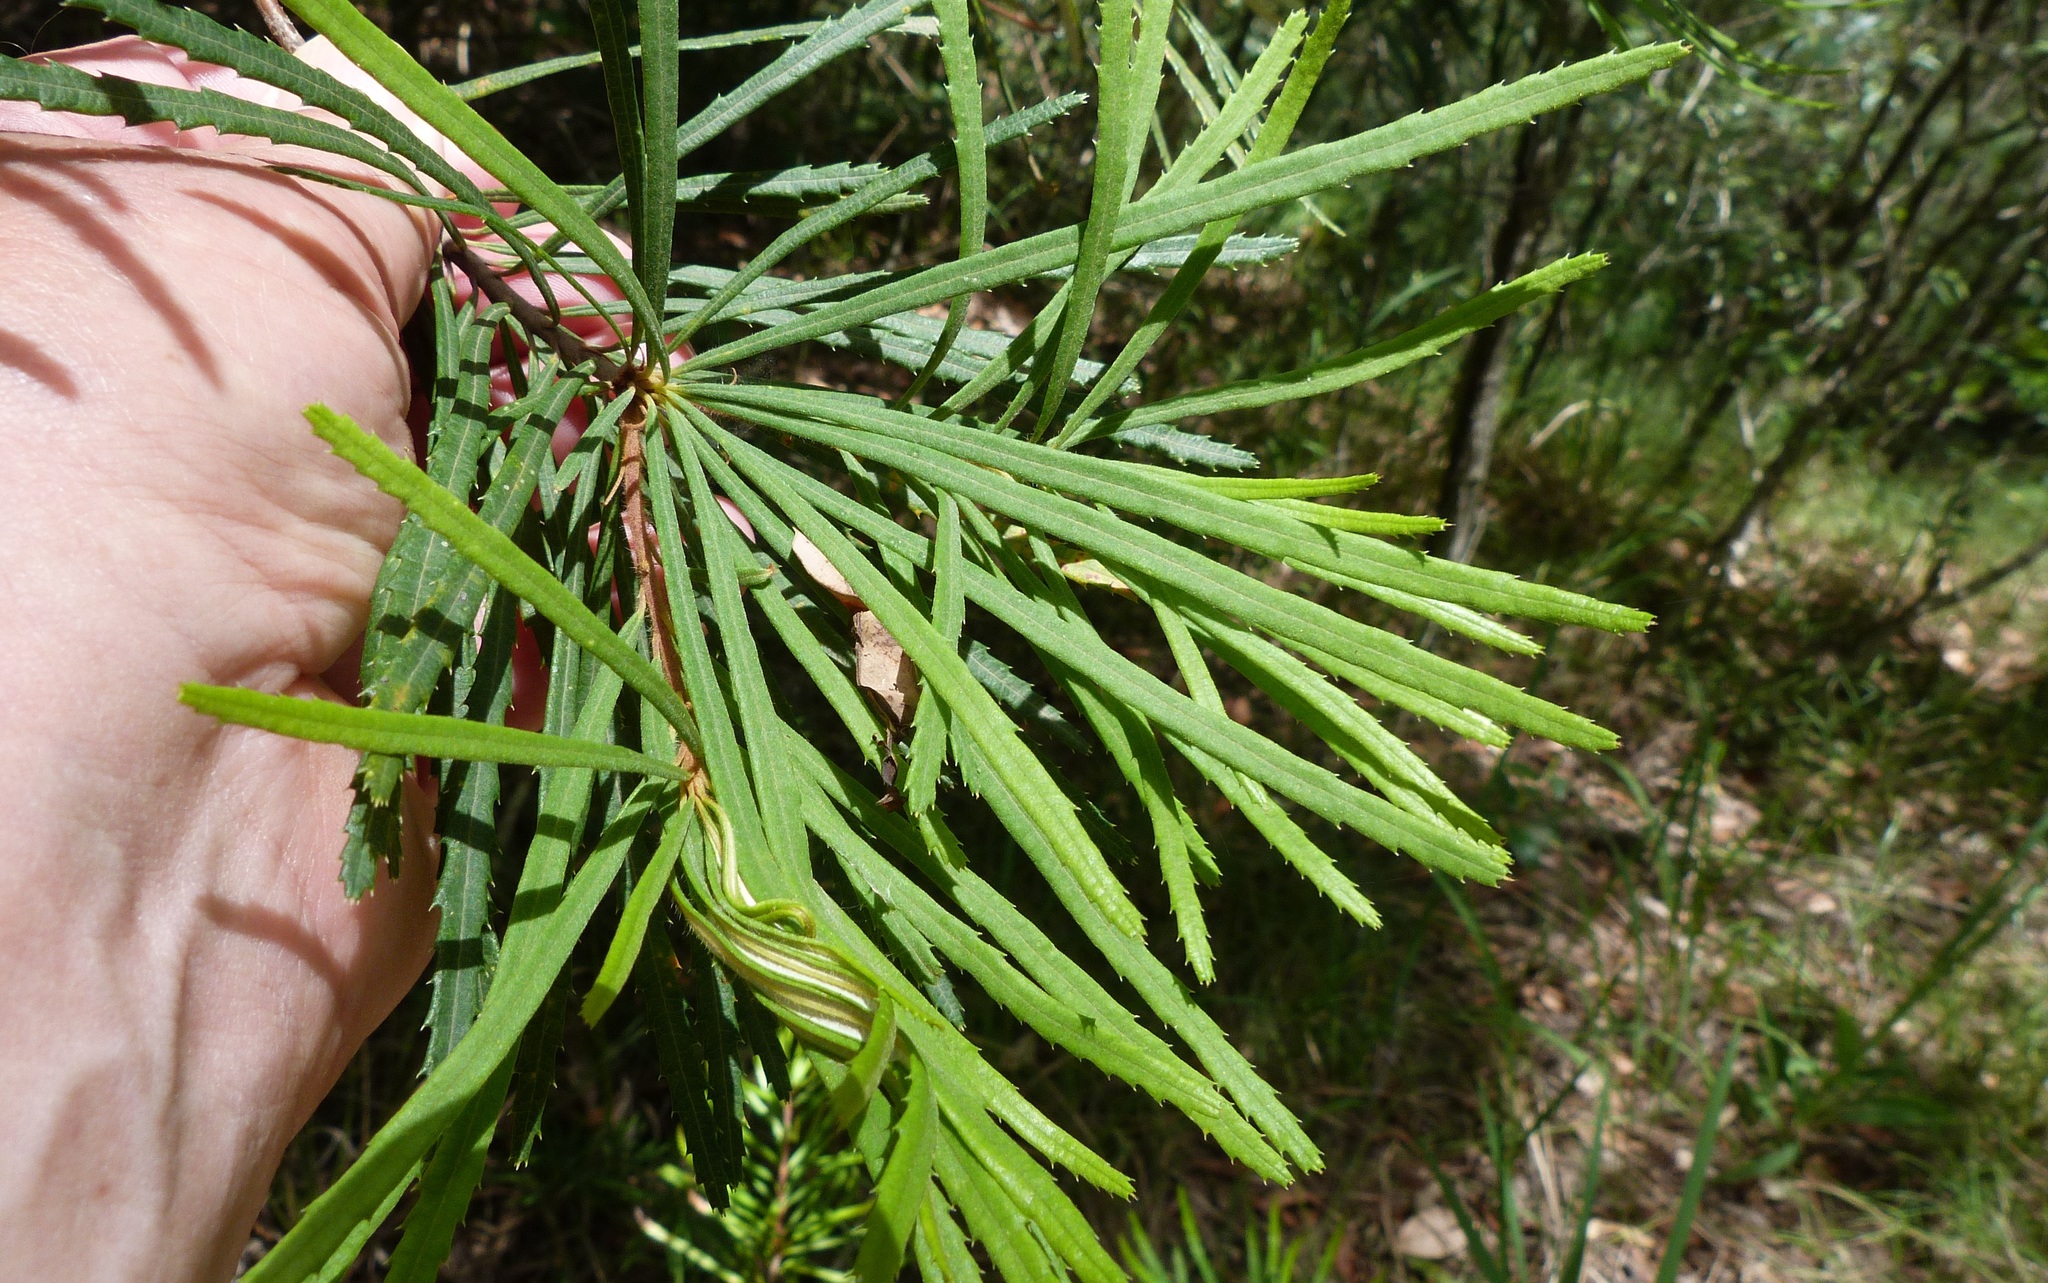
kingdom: Plantae
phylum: Tracheophyta
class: Magnoliopsida
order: Proteales
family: Proteaceae
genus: Banksia
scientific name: Banksia spinulosa
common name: Hairpin banksia
